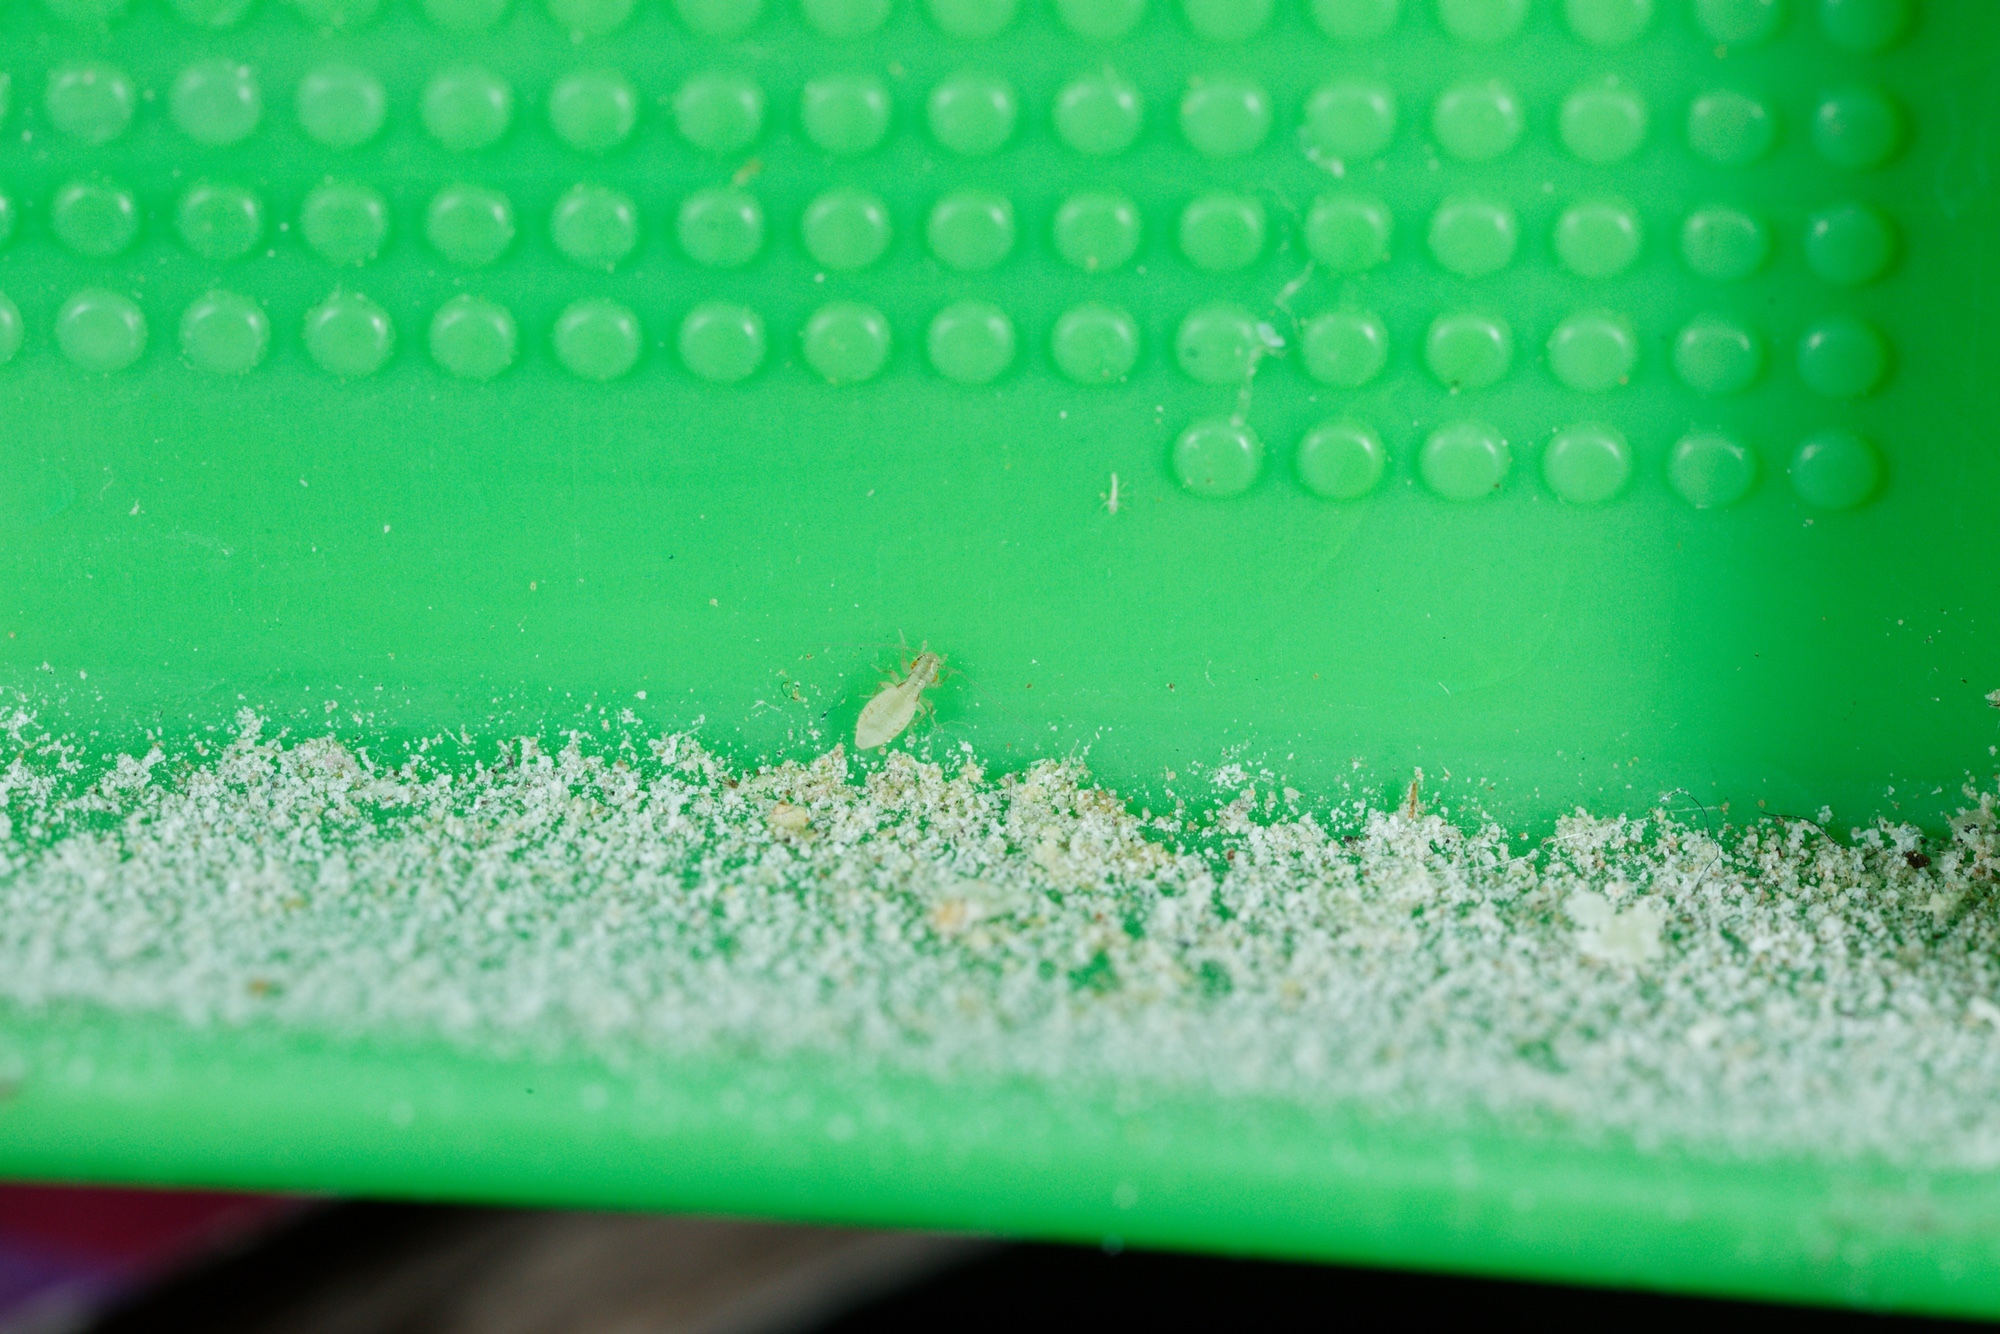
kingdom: Animalia
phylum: Arthropoda
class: Insecta
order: Psocodea
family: Trogiidae
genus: Trogium
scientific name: Trogium pulsatorium
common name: Granary book louse
